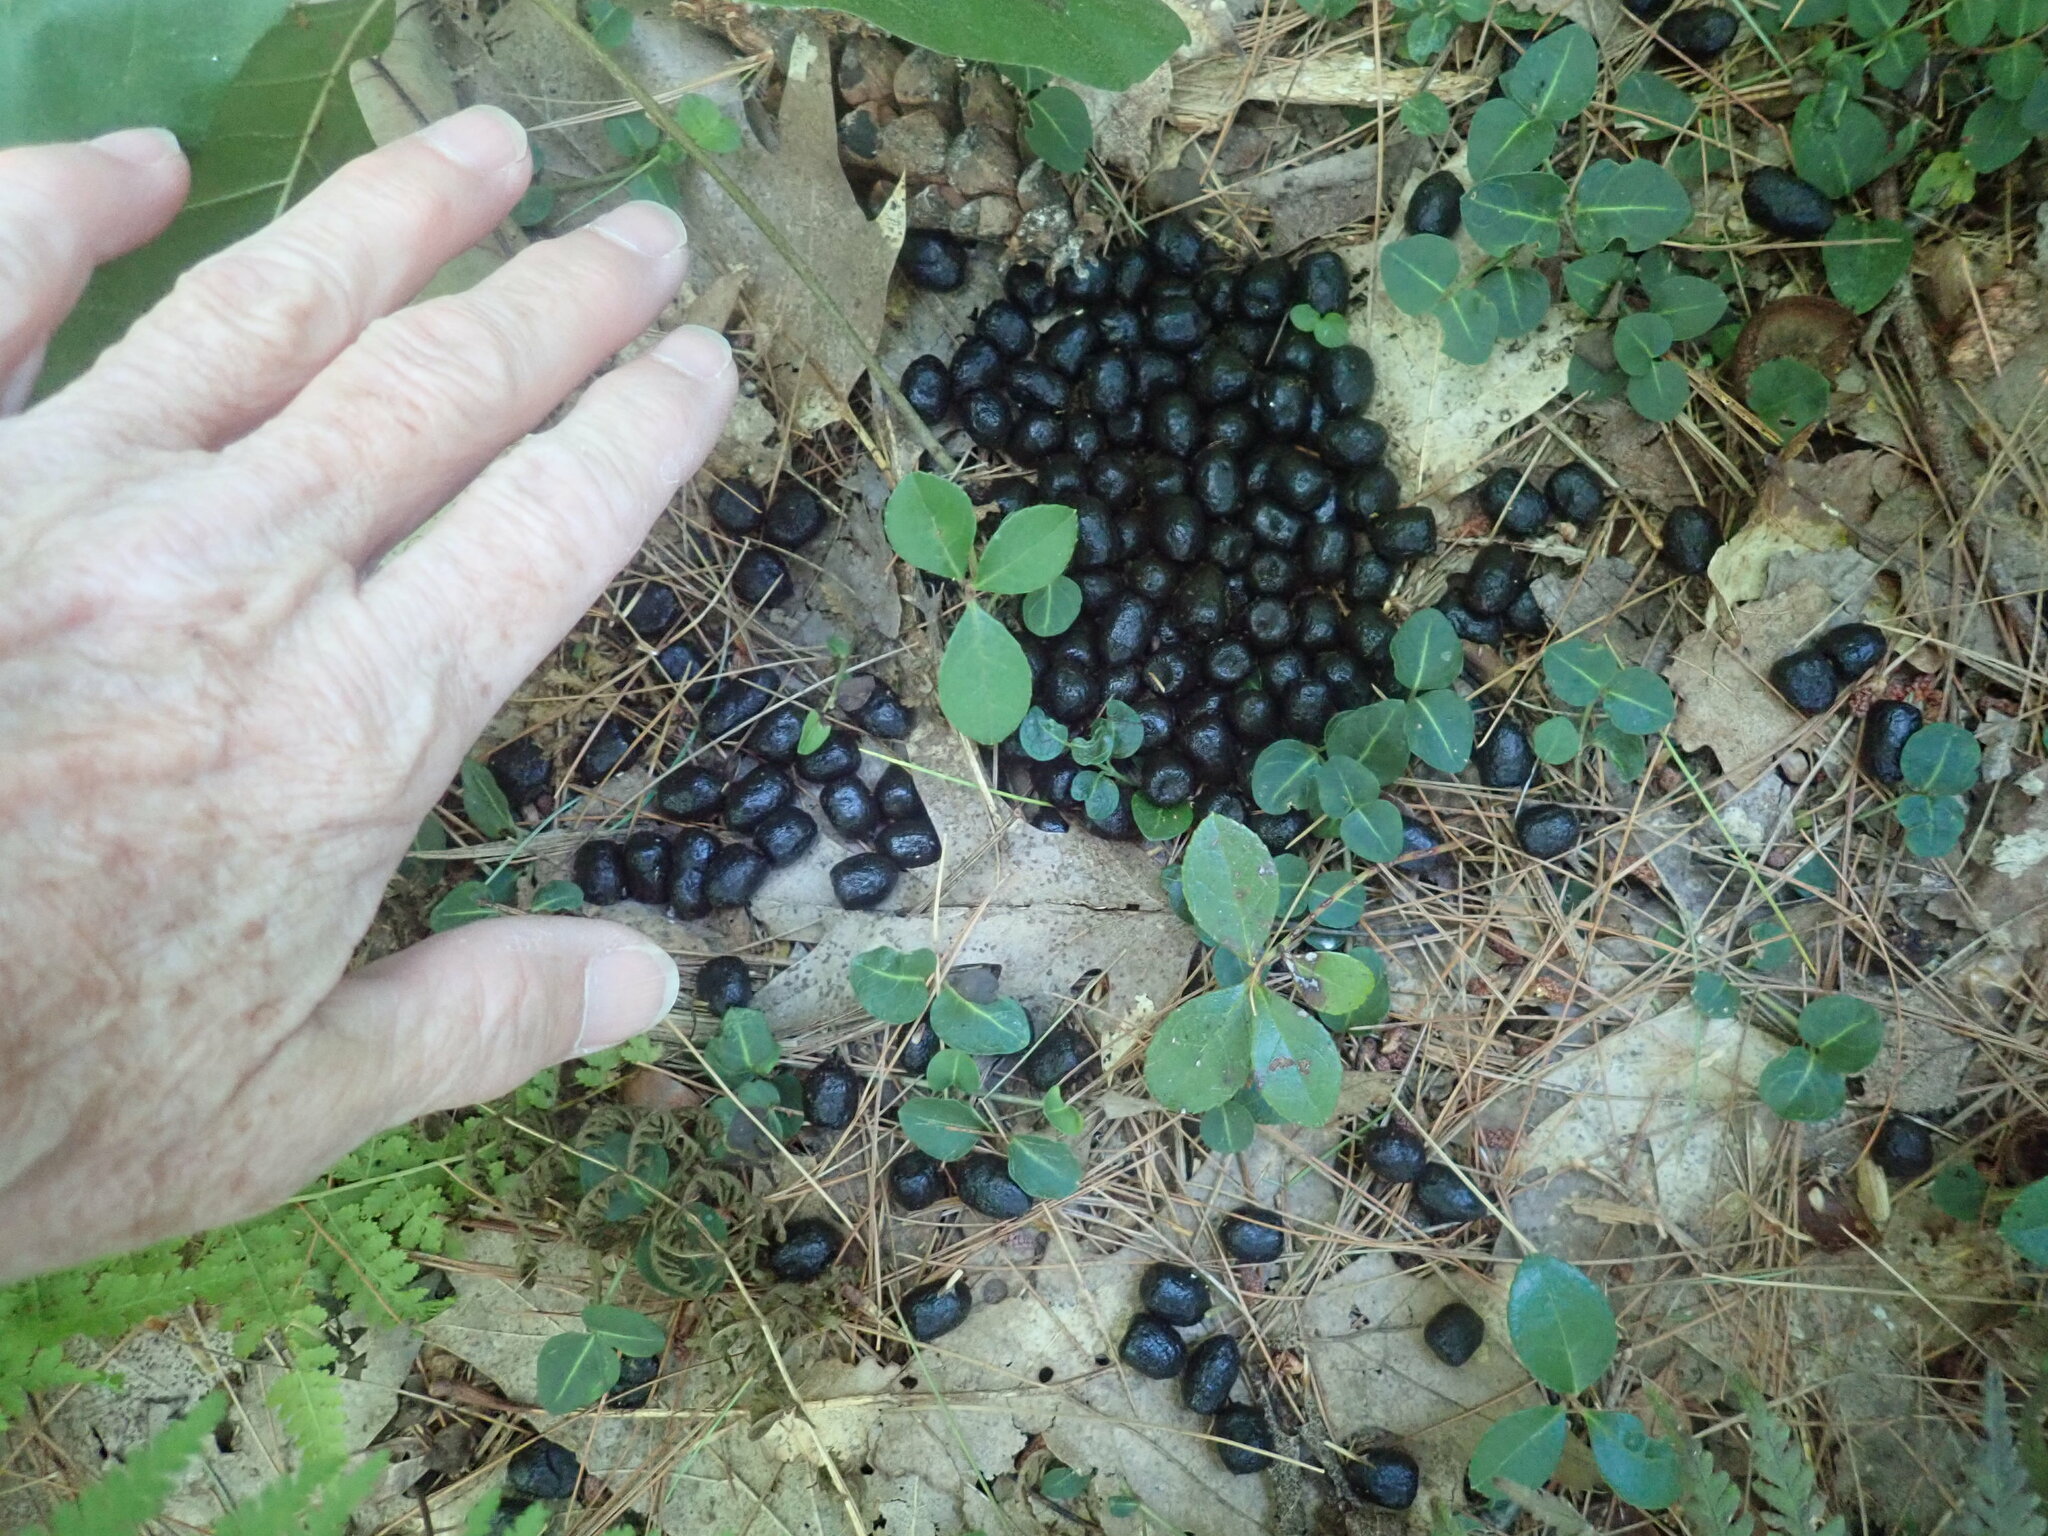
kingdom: Animalia
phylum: Chordata
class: Mammalia
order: Artiodactyla
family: Cervidae
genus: Odocoileus
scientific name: Odocoileus virginianus
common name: White-tailed deer
